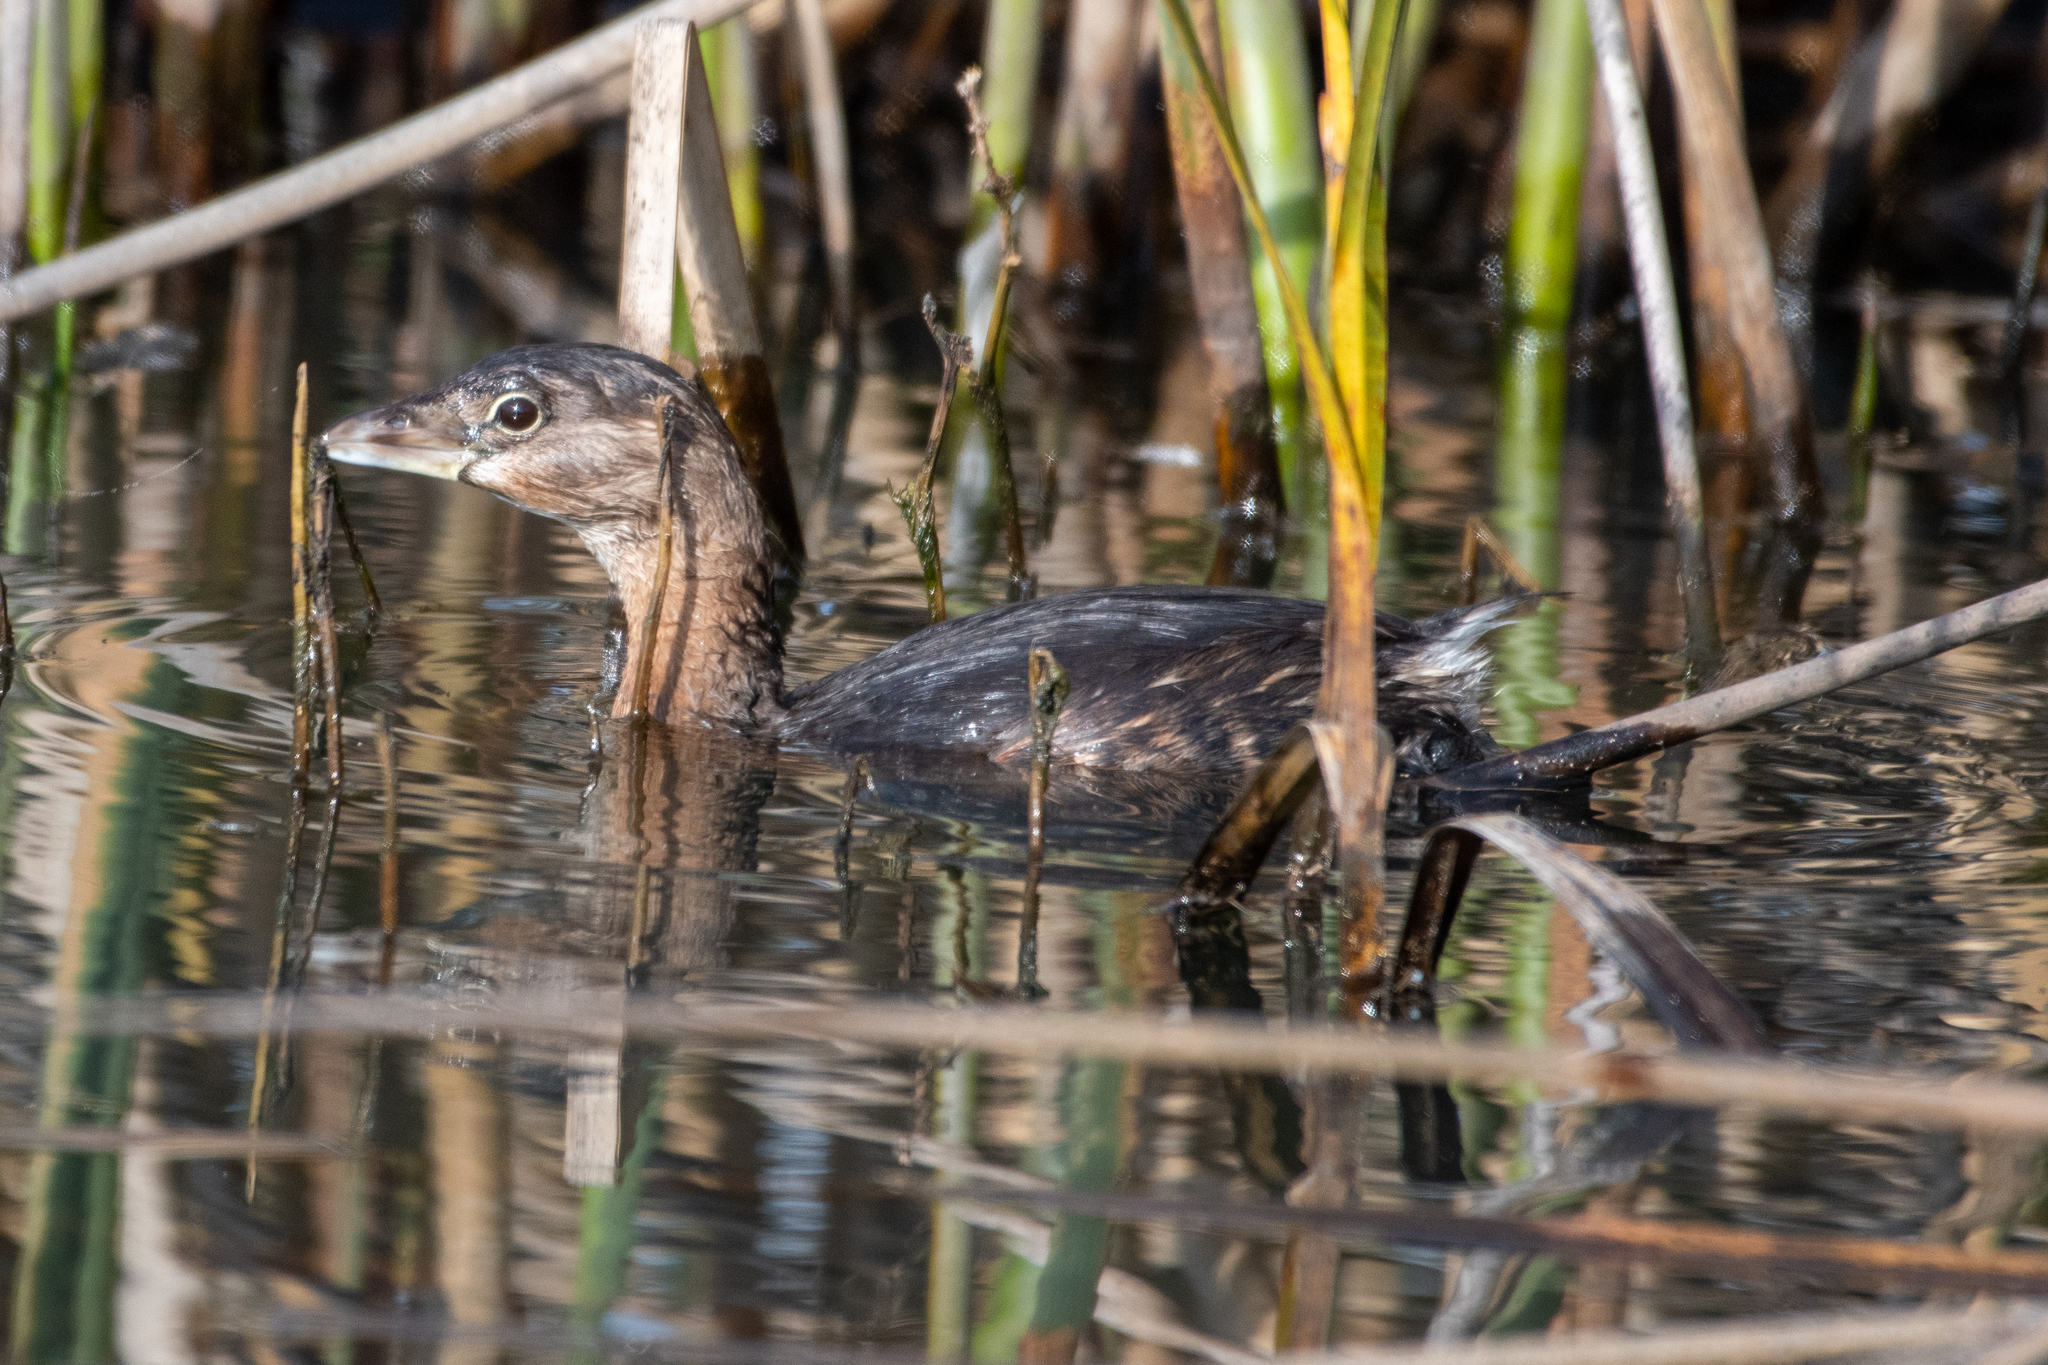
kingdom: Animalia
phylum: Chordata
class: Aves
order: Podicipediformes
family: Podicipedidae
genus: Podilymbus
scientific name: Podilymbus podiceps
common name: Pied-billed grebe
